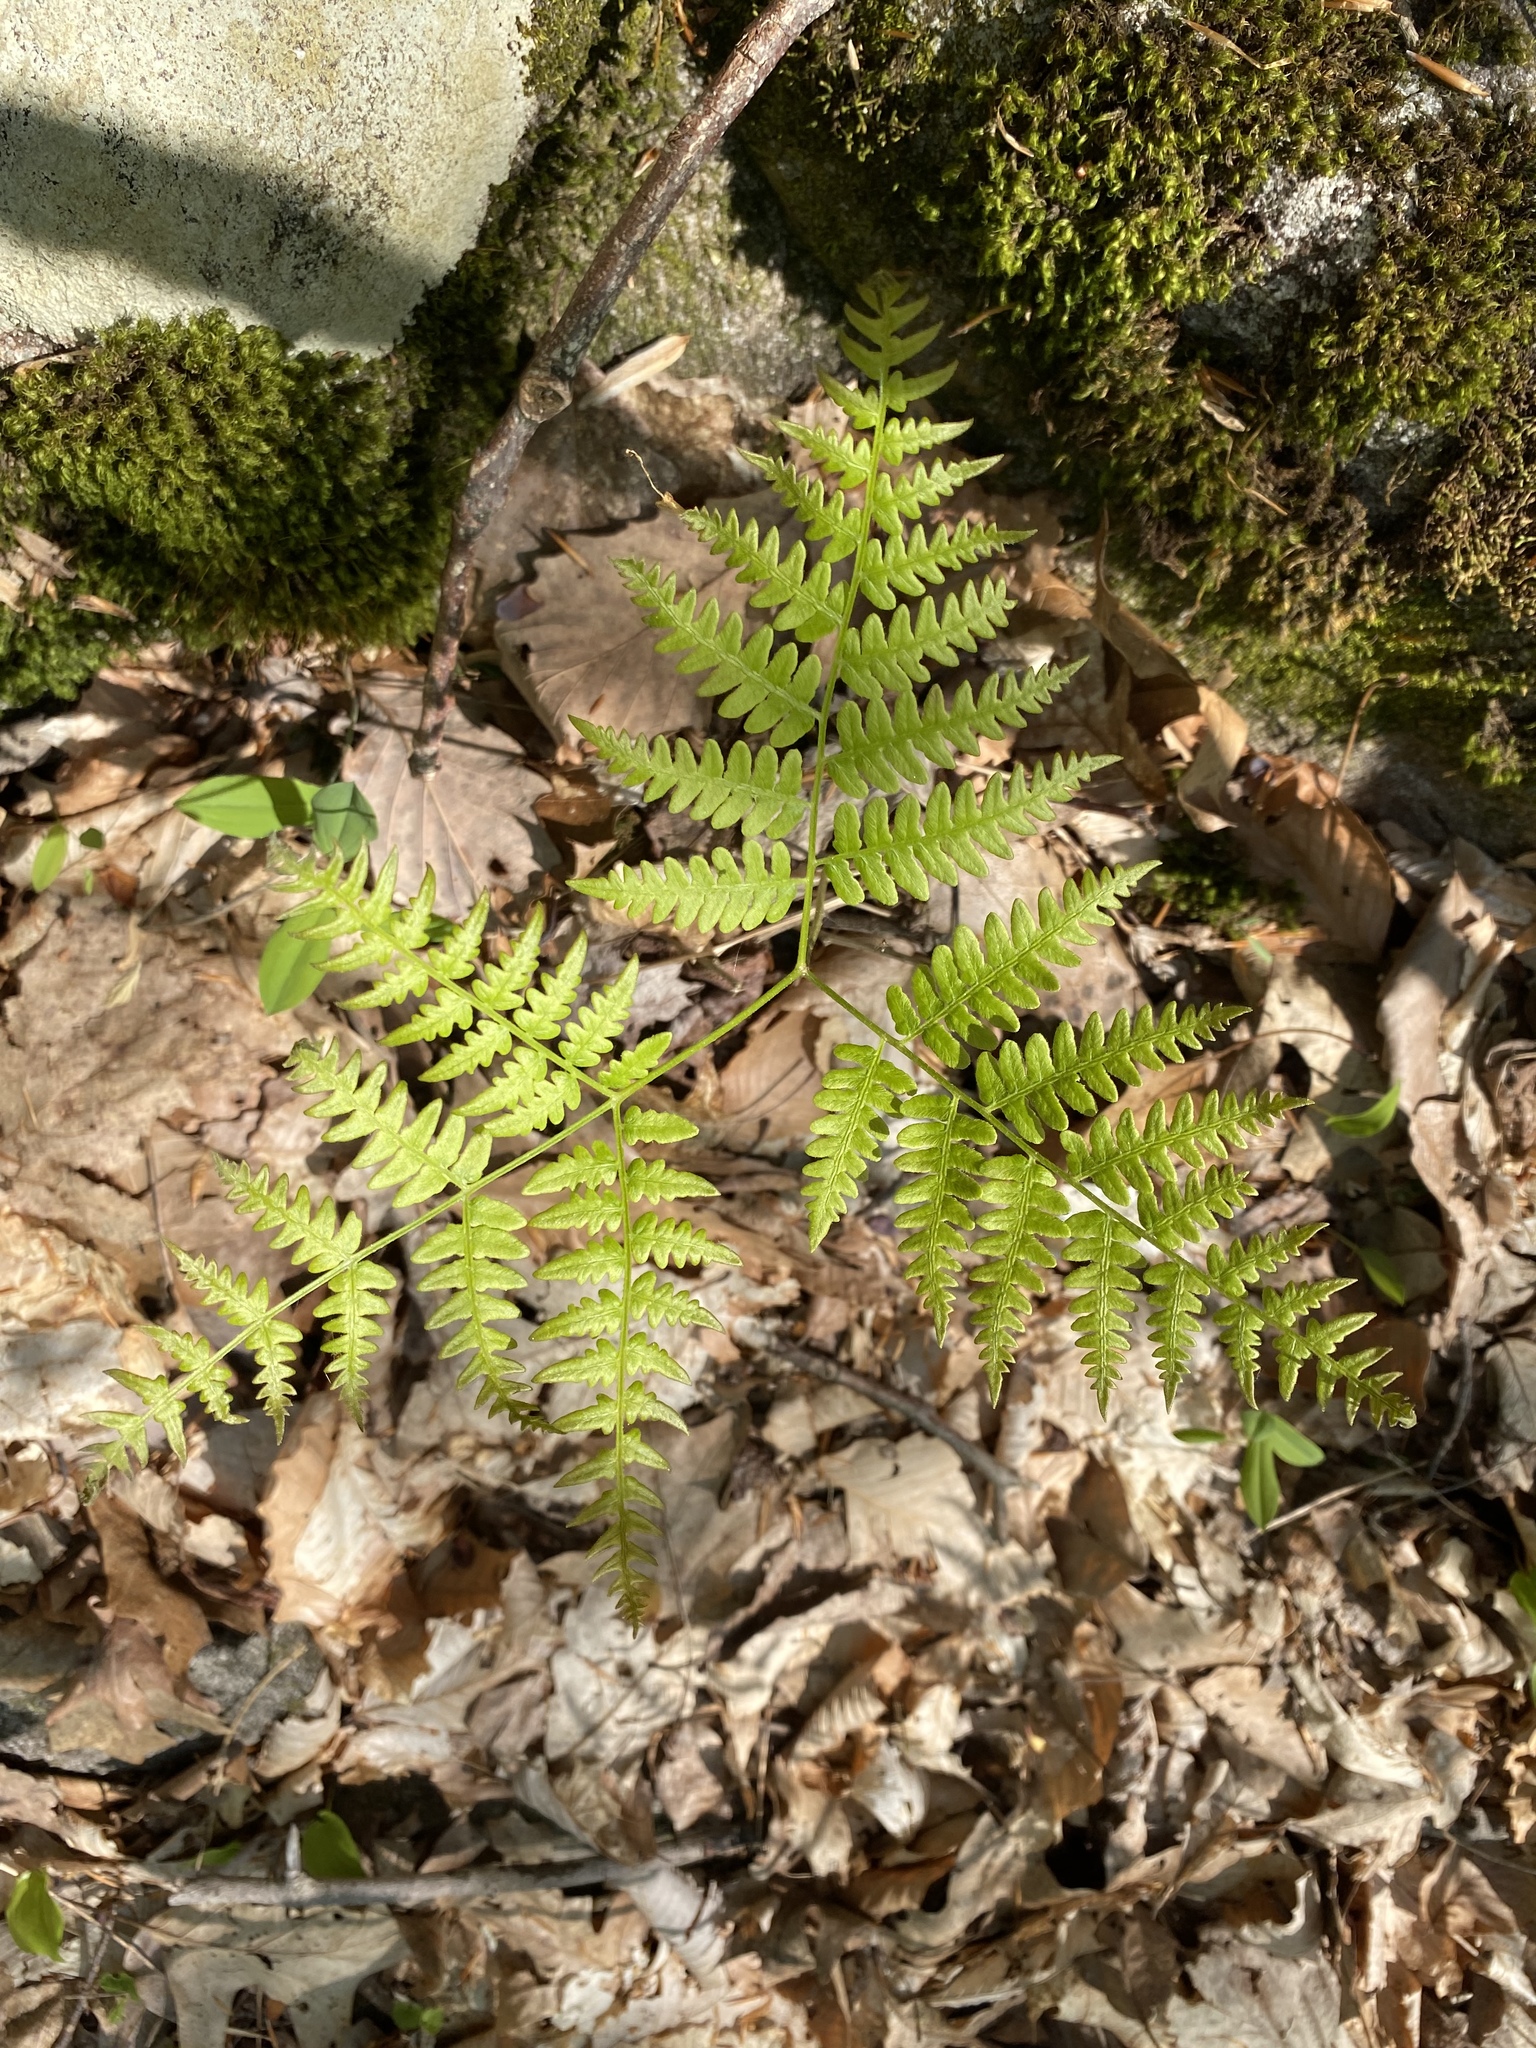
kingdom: Plantae
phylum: Tracheophyta
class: Polypodiopsida
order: Polypodiales
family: Dennstaedtiaceae
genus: Pteridium
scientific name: Pteridium aquilinum
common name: Bracken
